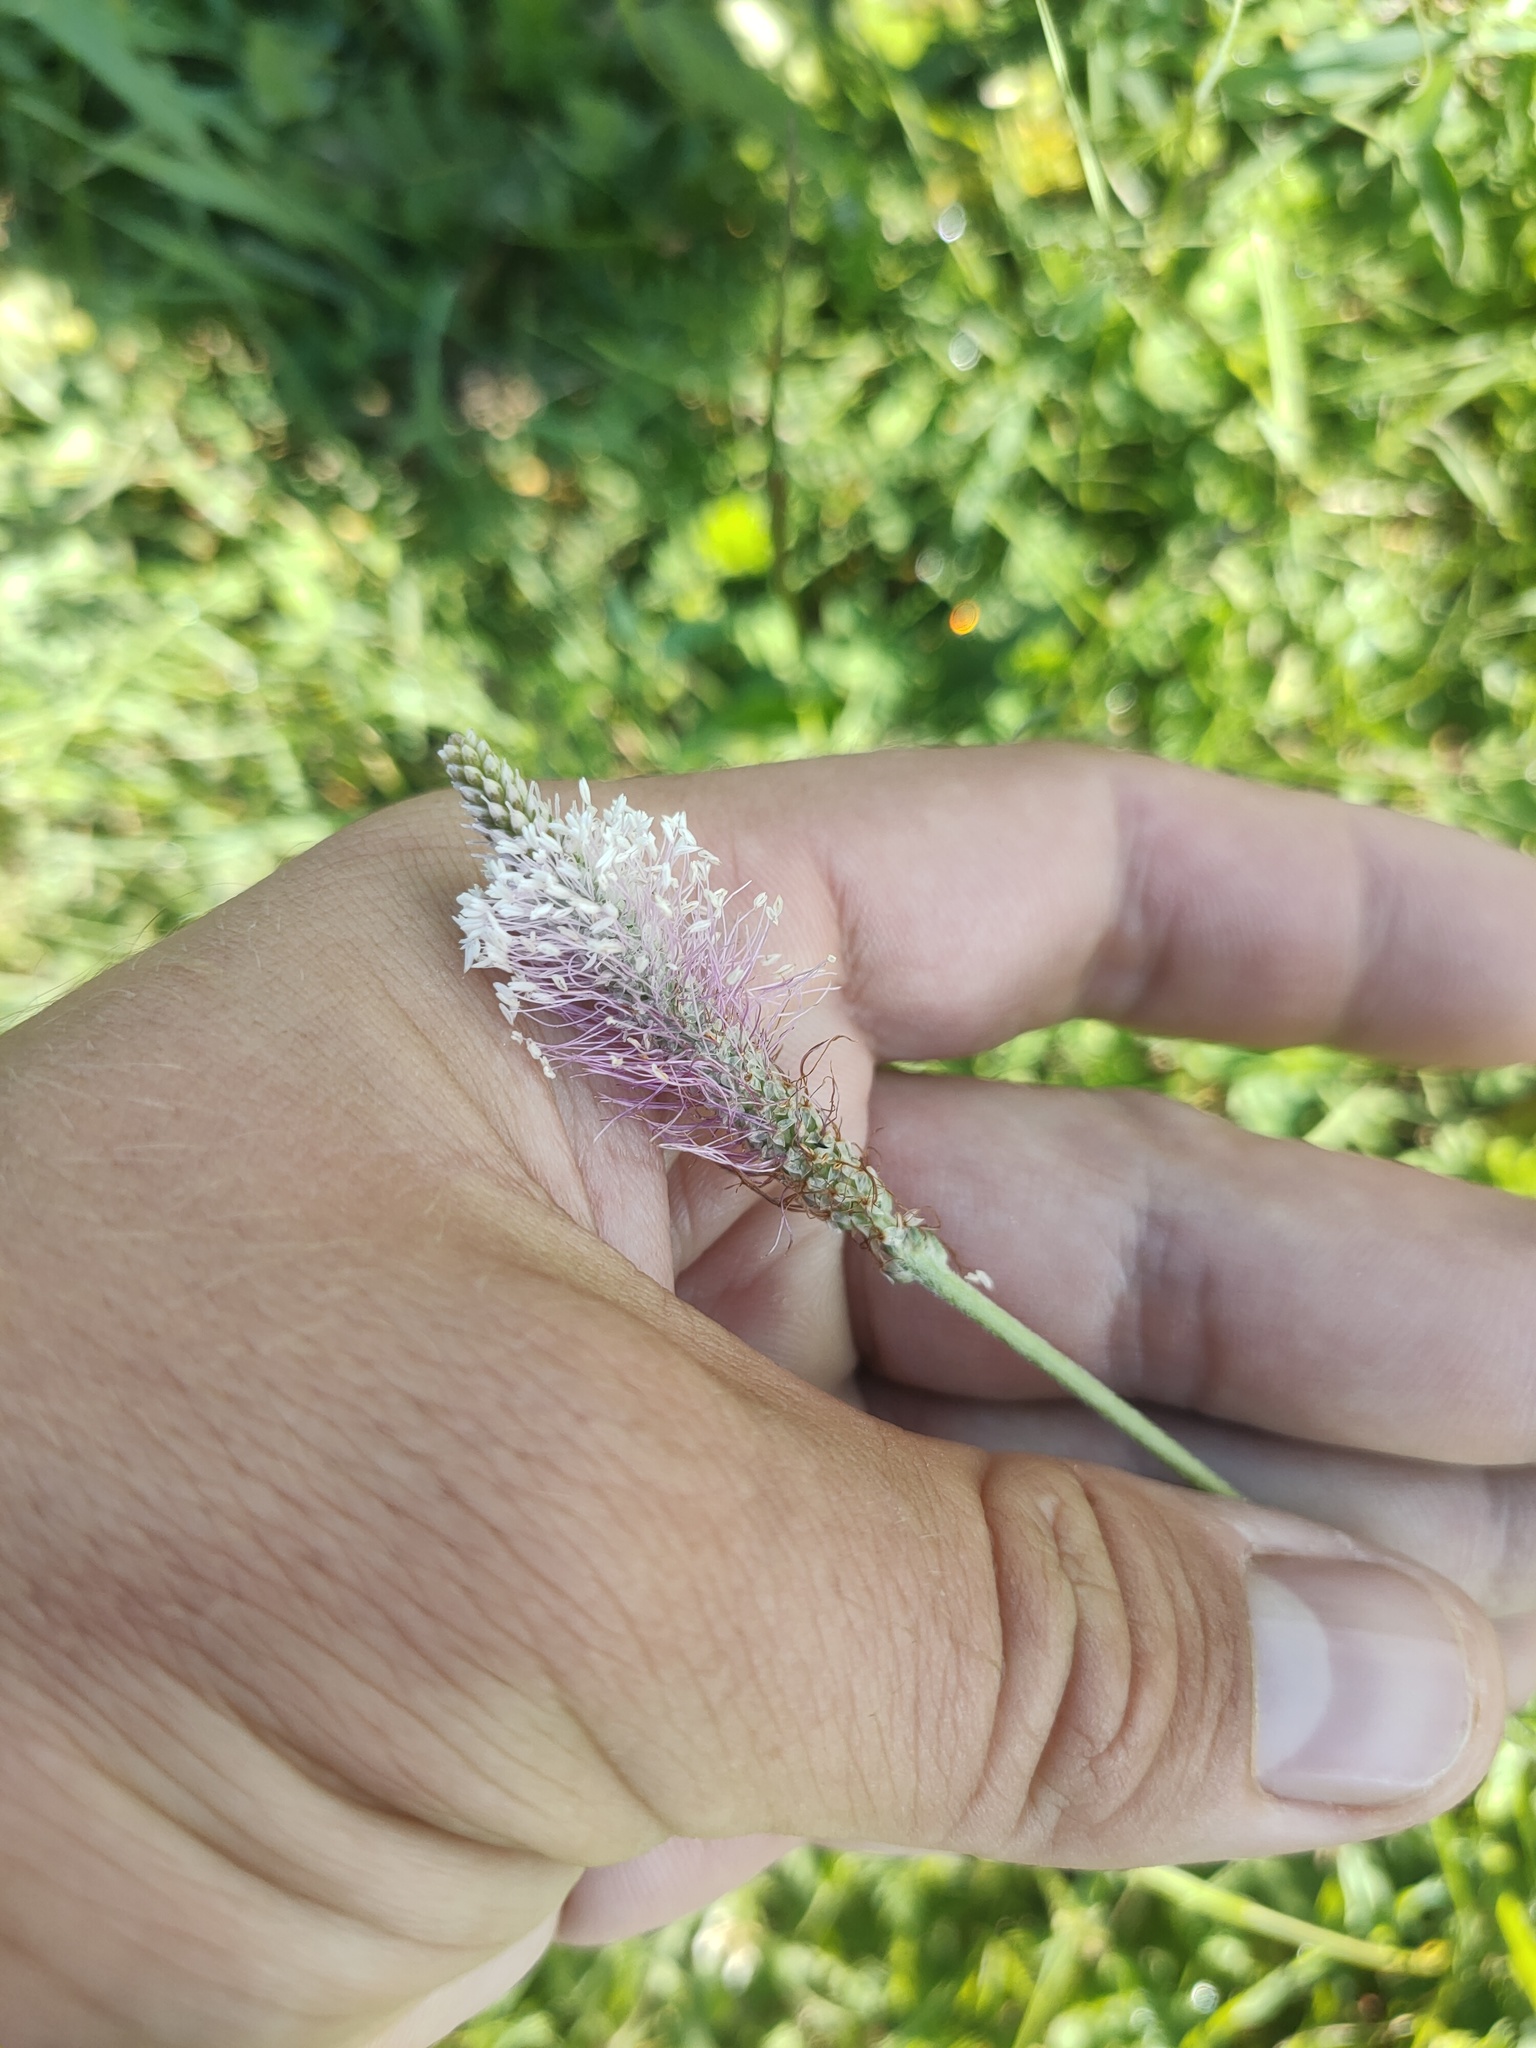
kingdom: Plantae
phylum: Tracheophyta
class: Magnoliopsida
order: Lamiales
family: Plantaginaceae
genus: Plantago
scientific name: Plantago media
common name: Hoary plantain
